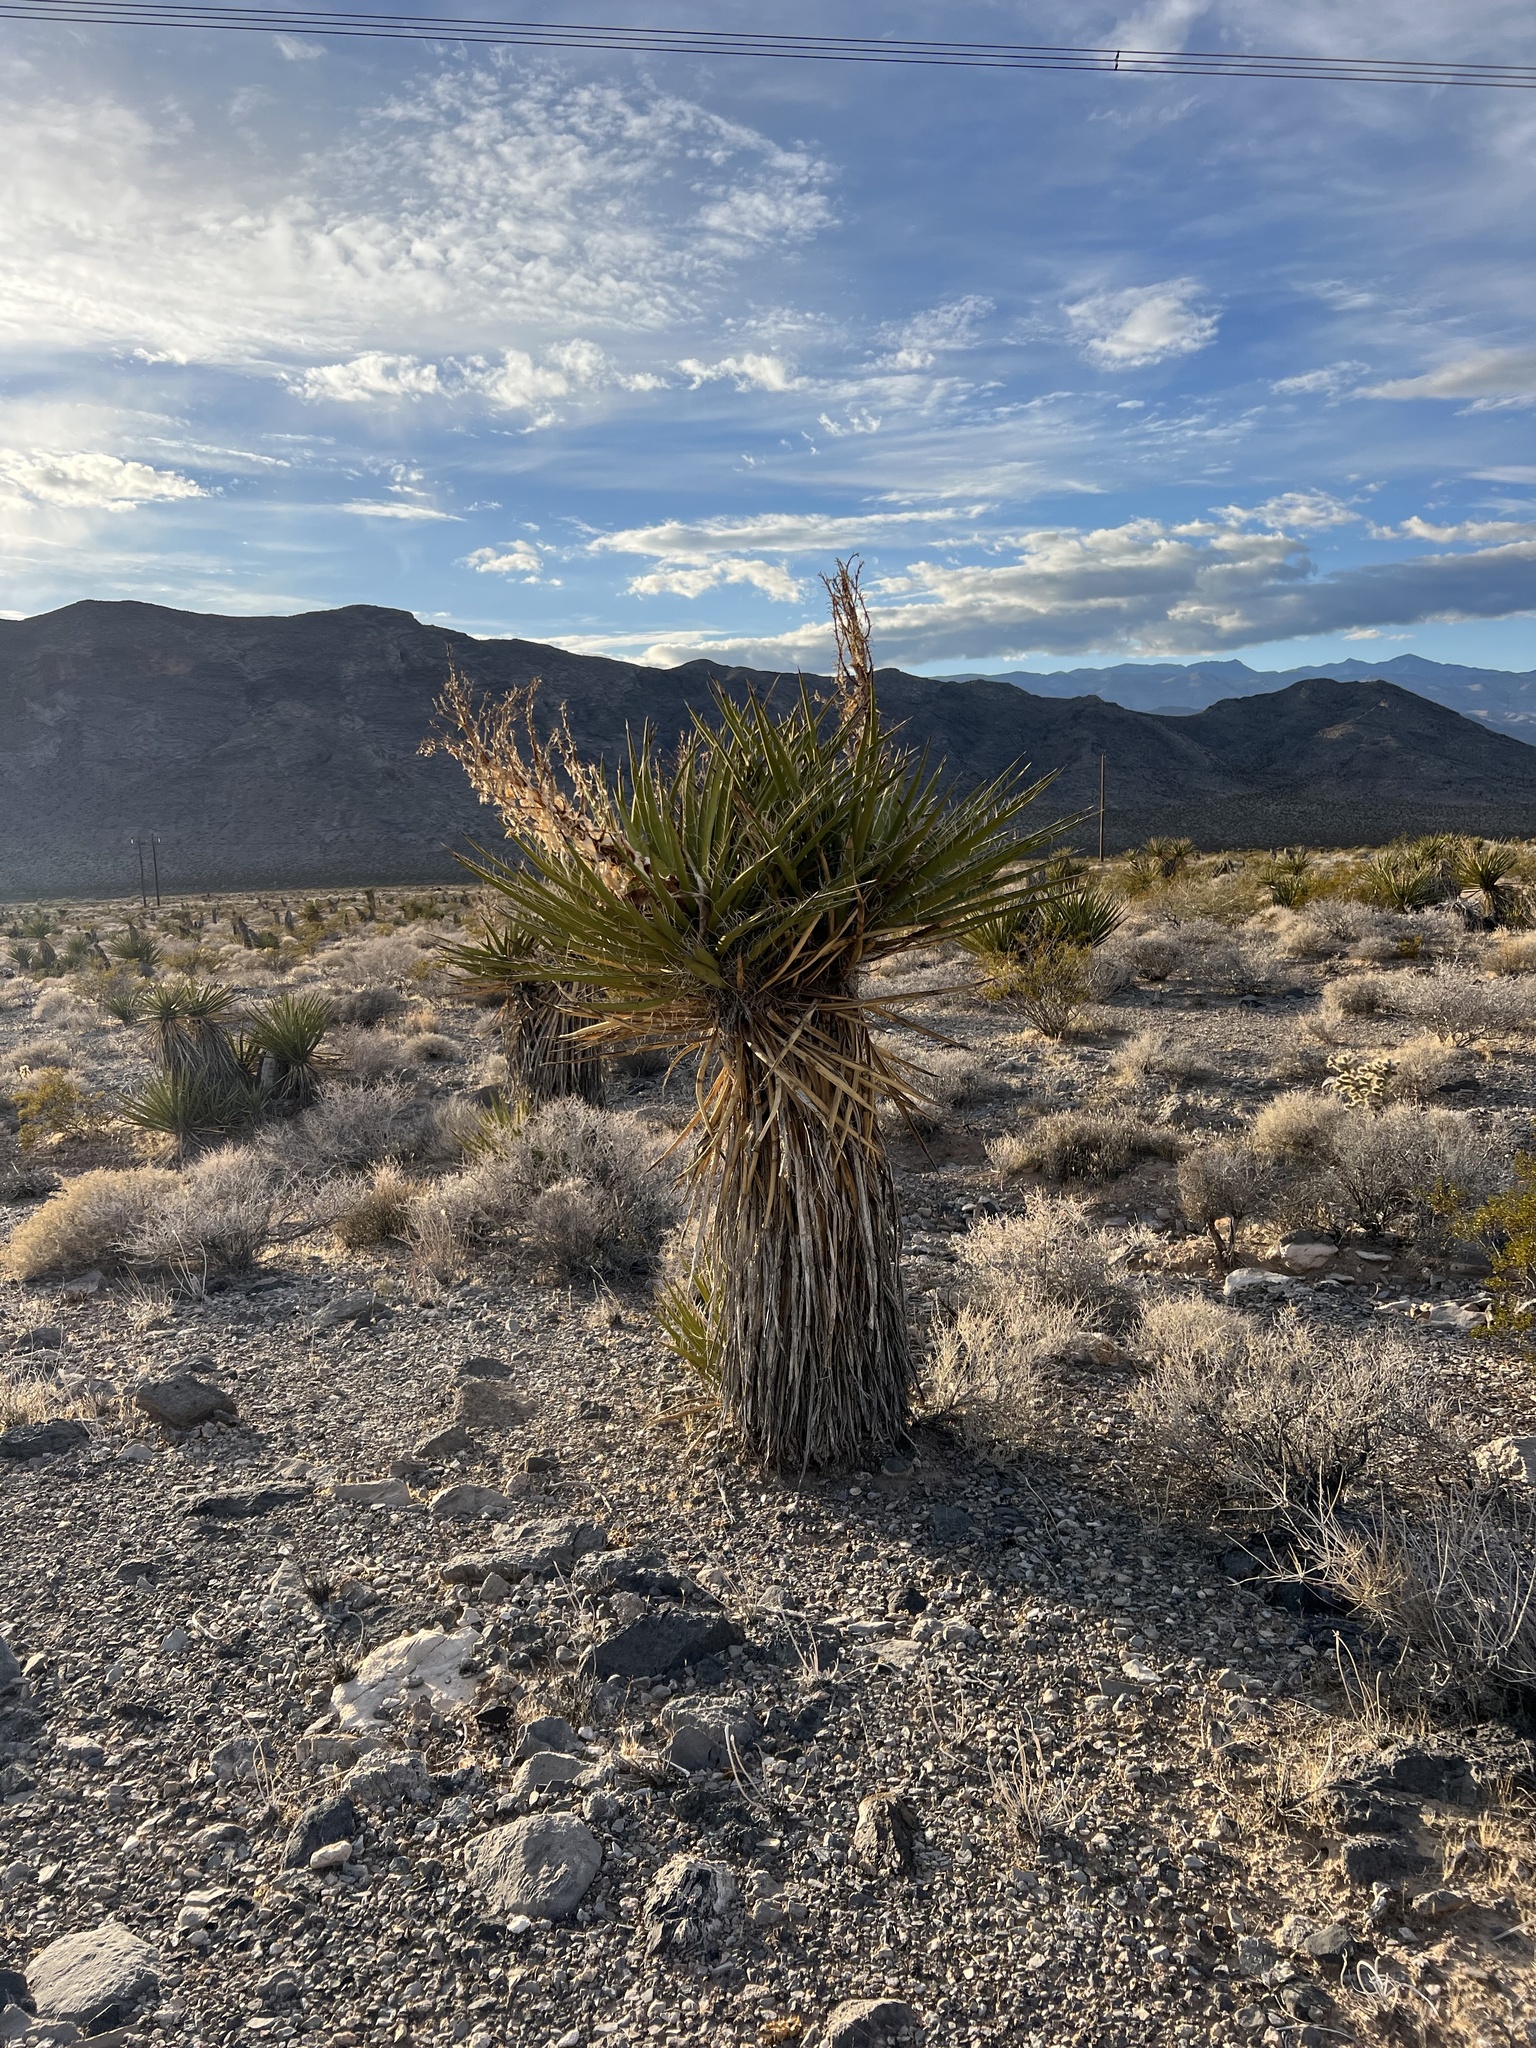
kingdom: Plantae
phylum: Tracheophyta
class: Liliopsida
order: Asparagales
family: Asparagaceae
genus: Yucca
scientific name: Yucca schidigera
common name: Mojave yucca
